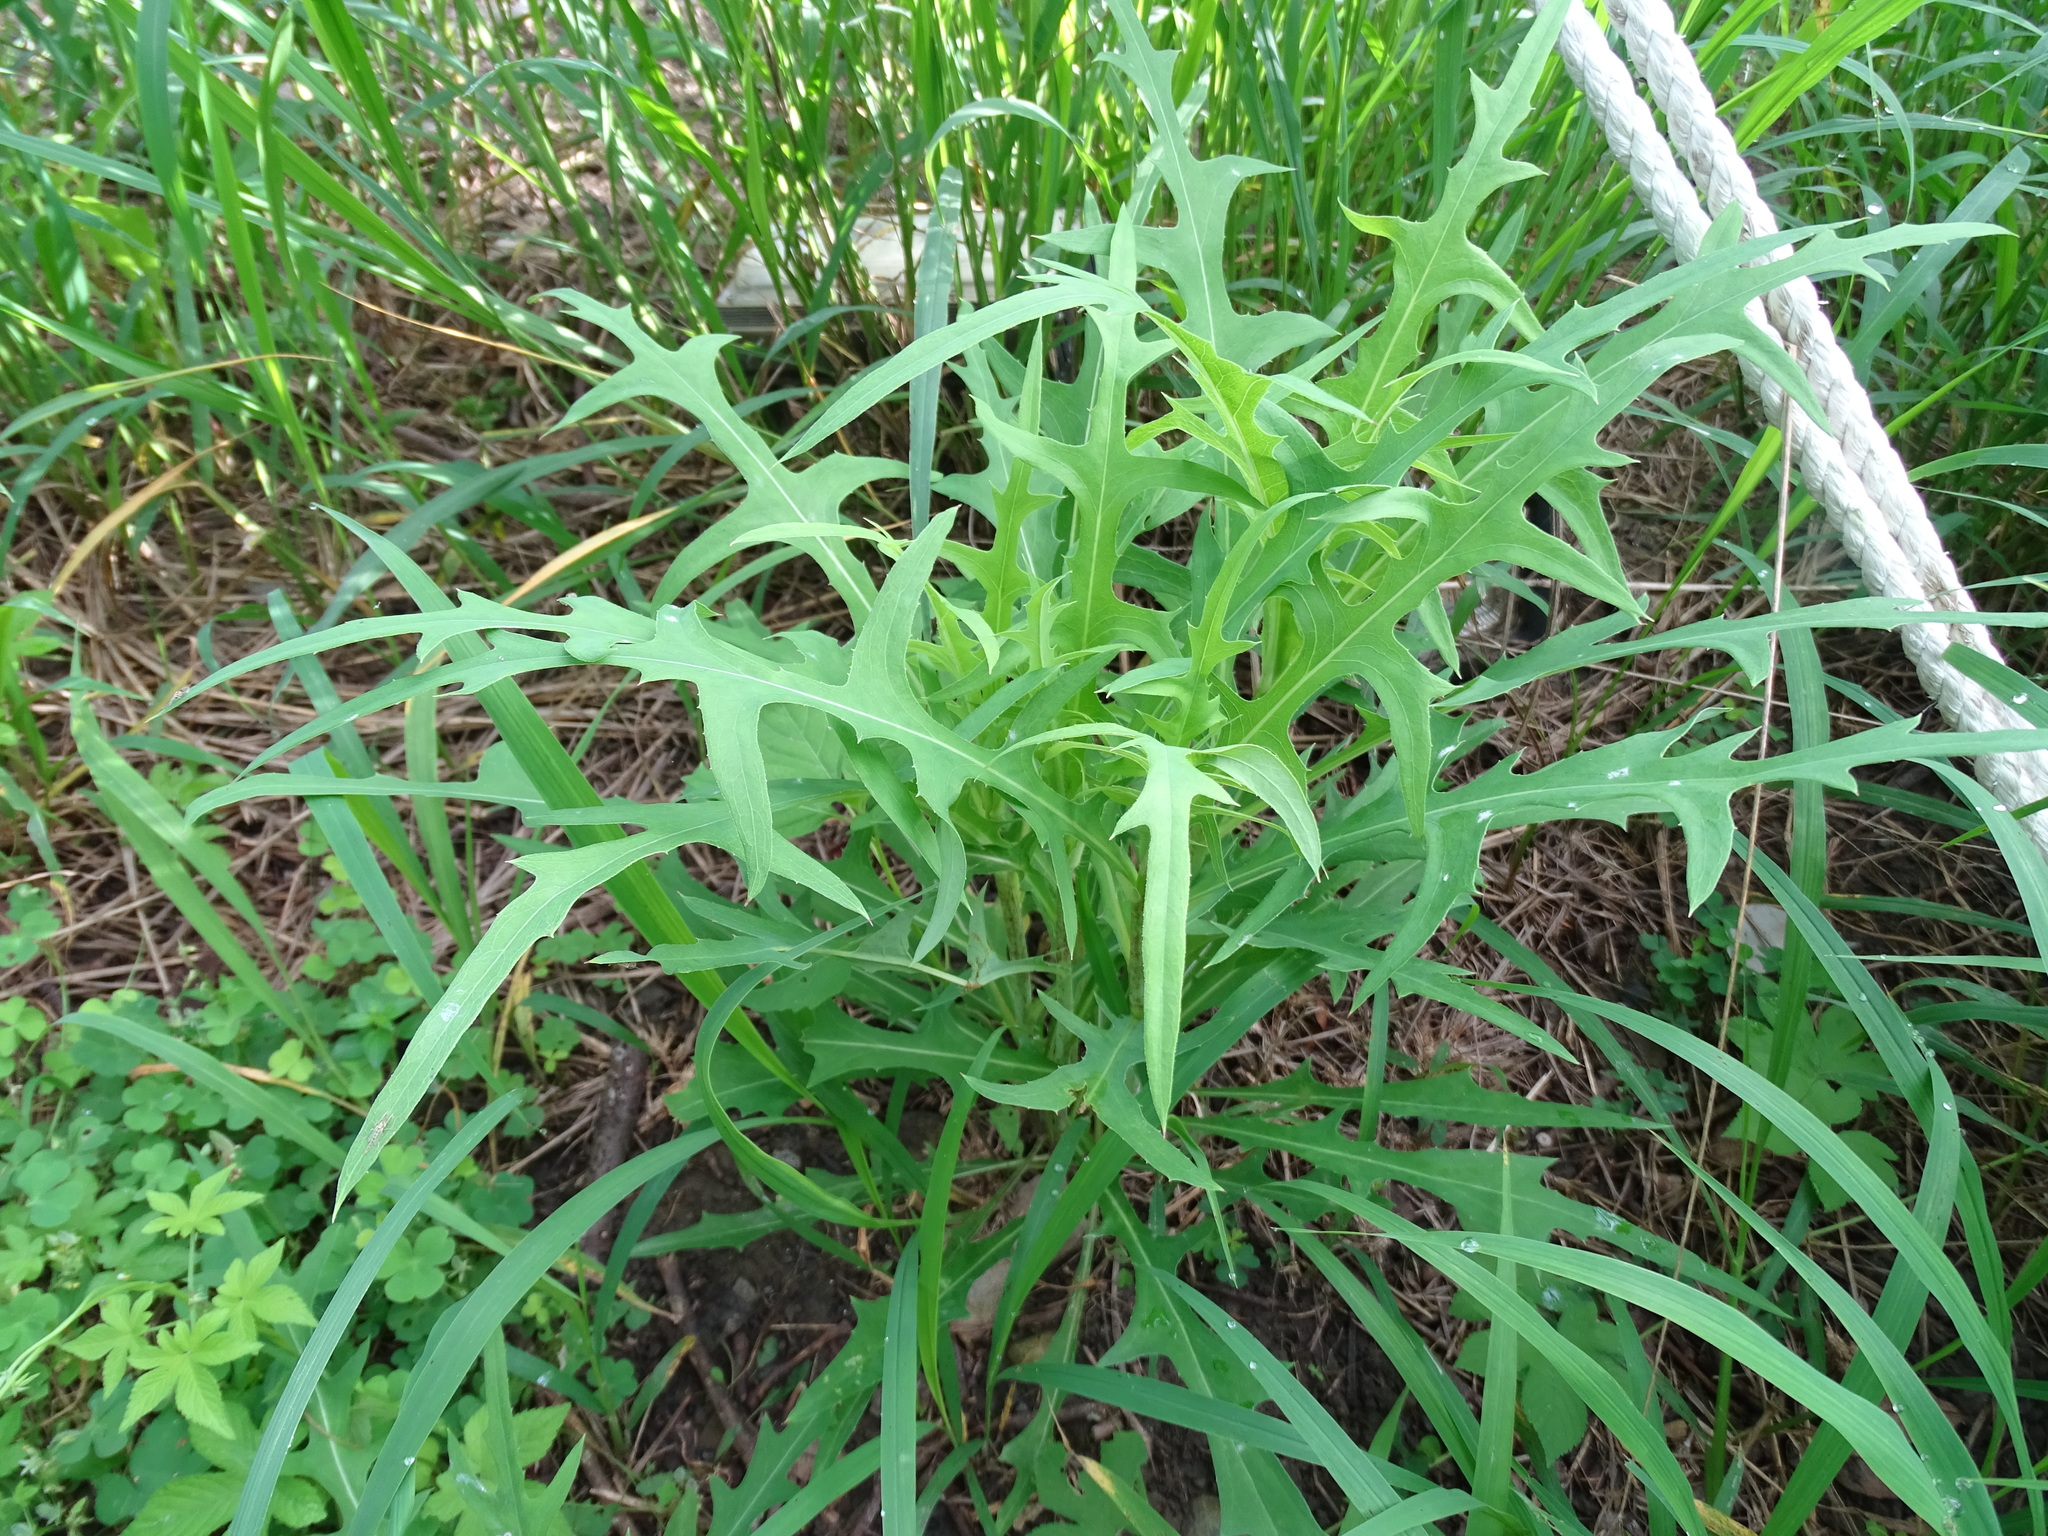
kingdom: Plantae
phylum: Tracheophyta
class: Magnoliopsida
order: Asterales
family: Asteraceae
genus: Lactuca
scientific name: Lactuca indica
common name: Wild lettuce
